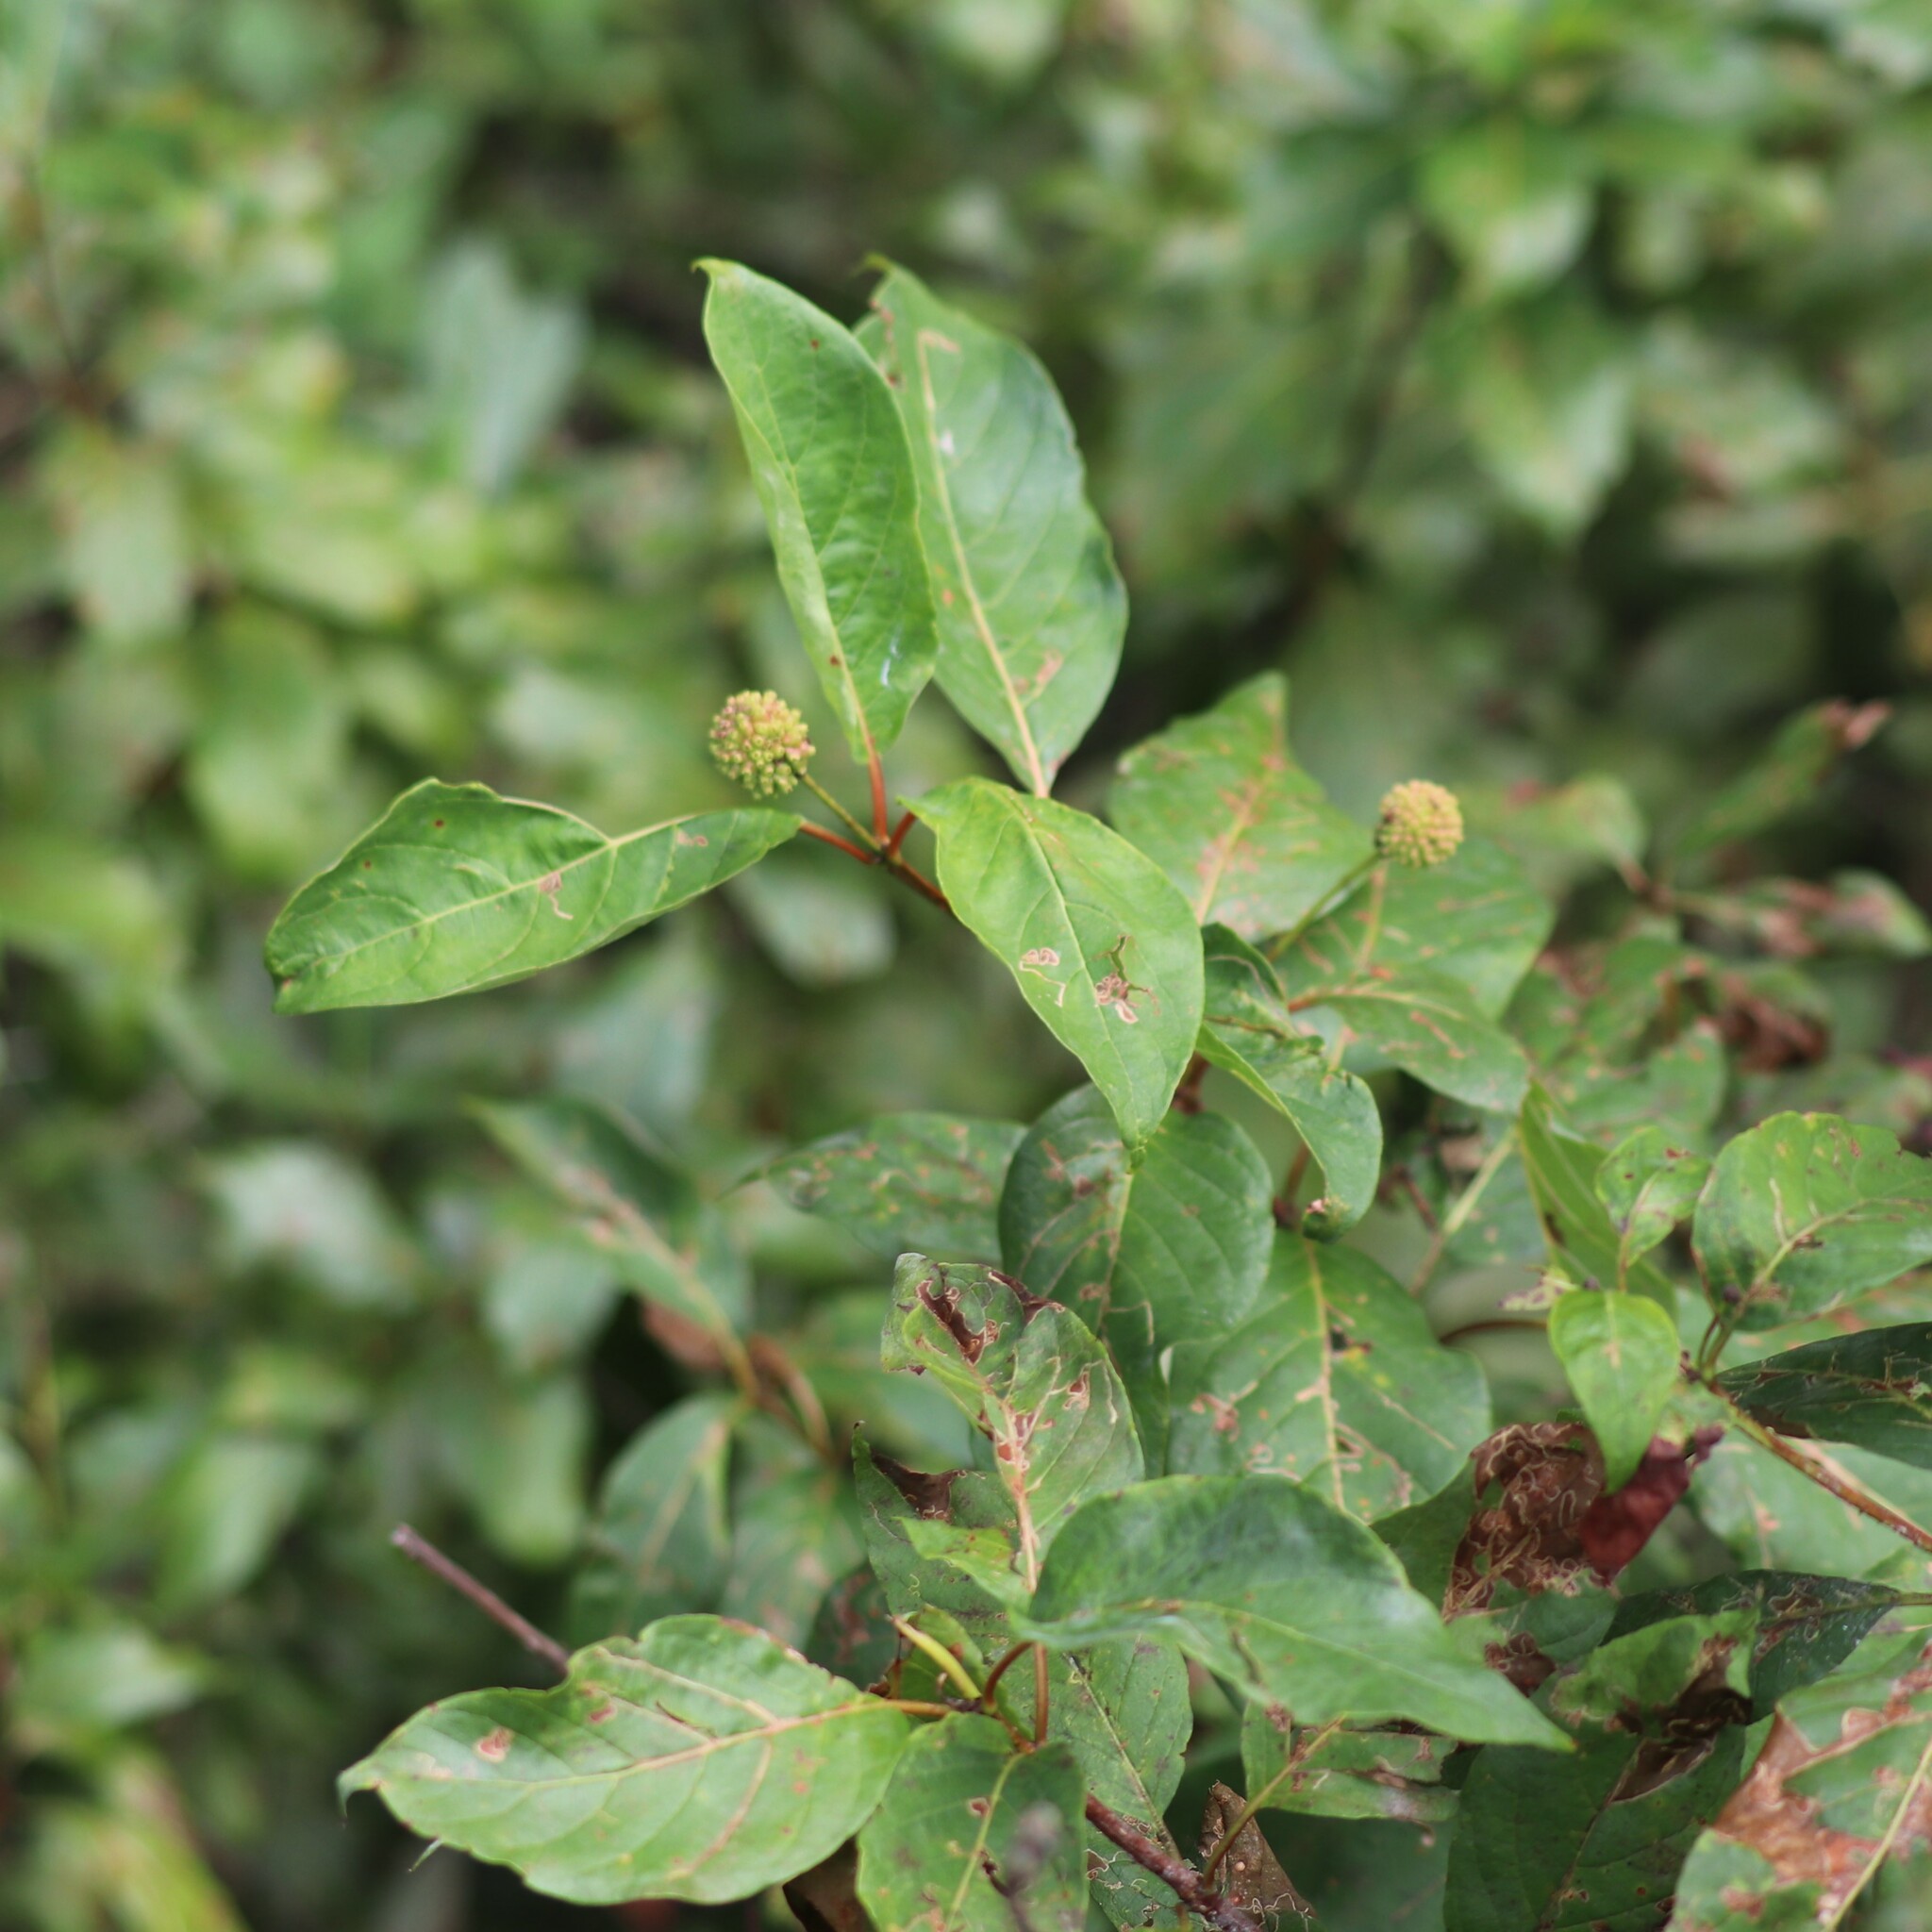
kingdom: Plantae
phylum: Tracheophyta
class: Magnoliopsida
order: Gentianales
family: Rubiaceae
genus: Cephalanthus
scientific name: Cephalanthus occidentalis
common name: Button-willow
